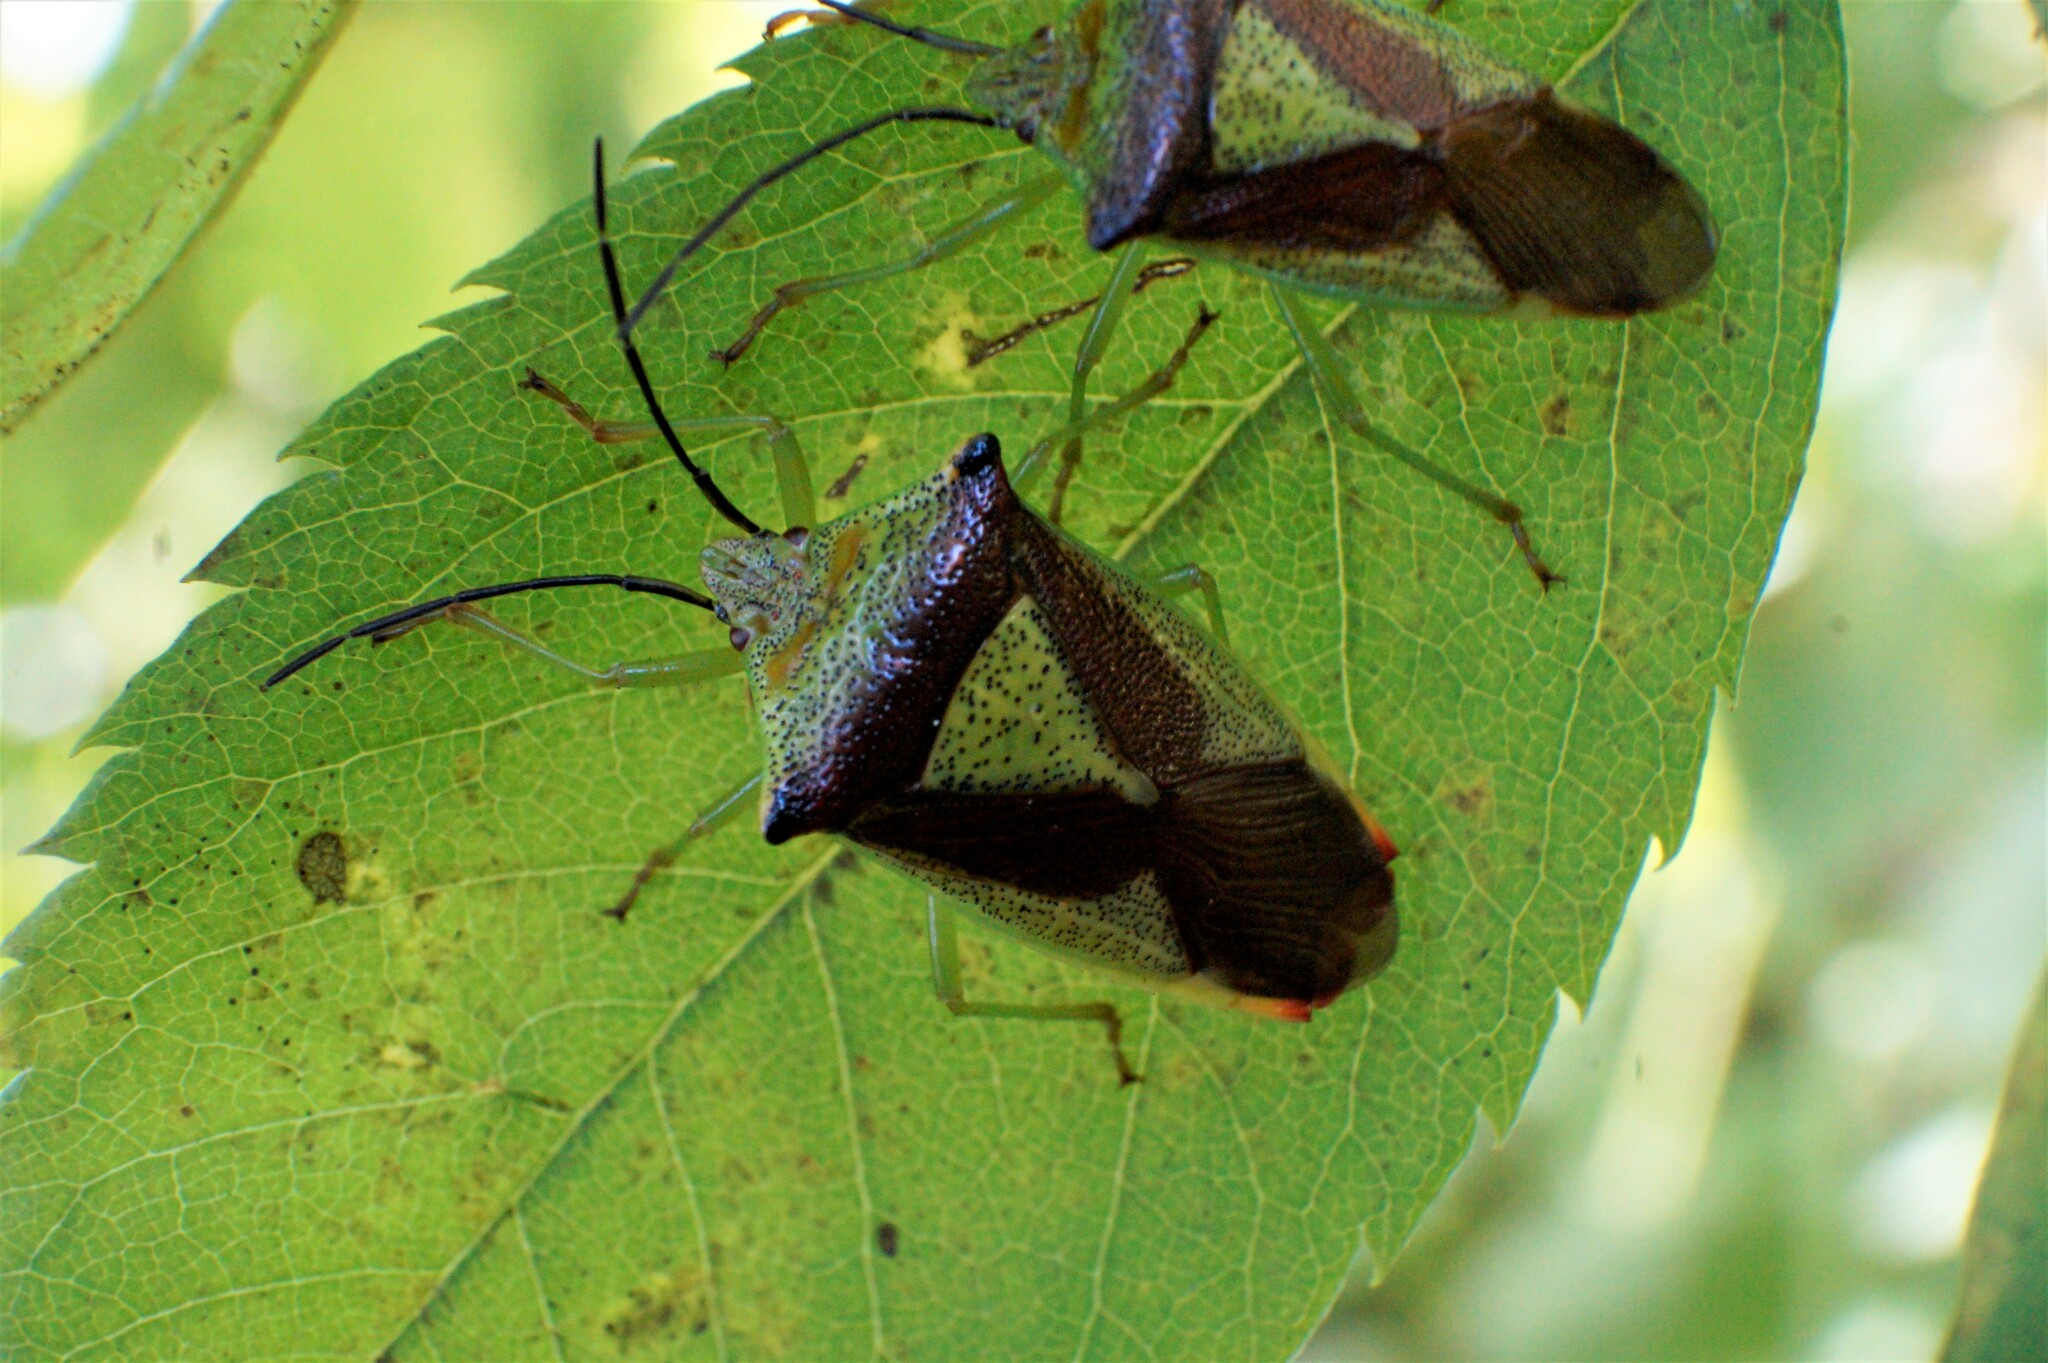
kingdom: Animalia
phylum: Arthropoda
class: Insecta
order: Hemiptera
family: Acanthosomatidae
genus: Acanthosoma
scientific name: Acanthosoma haemorrhoidale
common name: Hawthorn shieldbug
